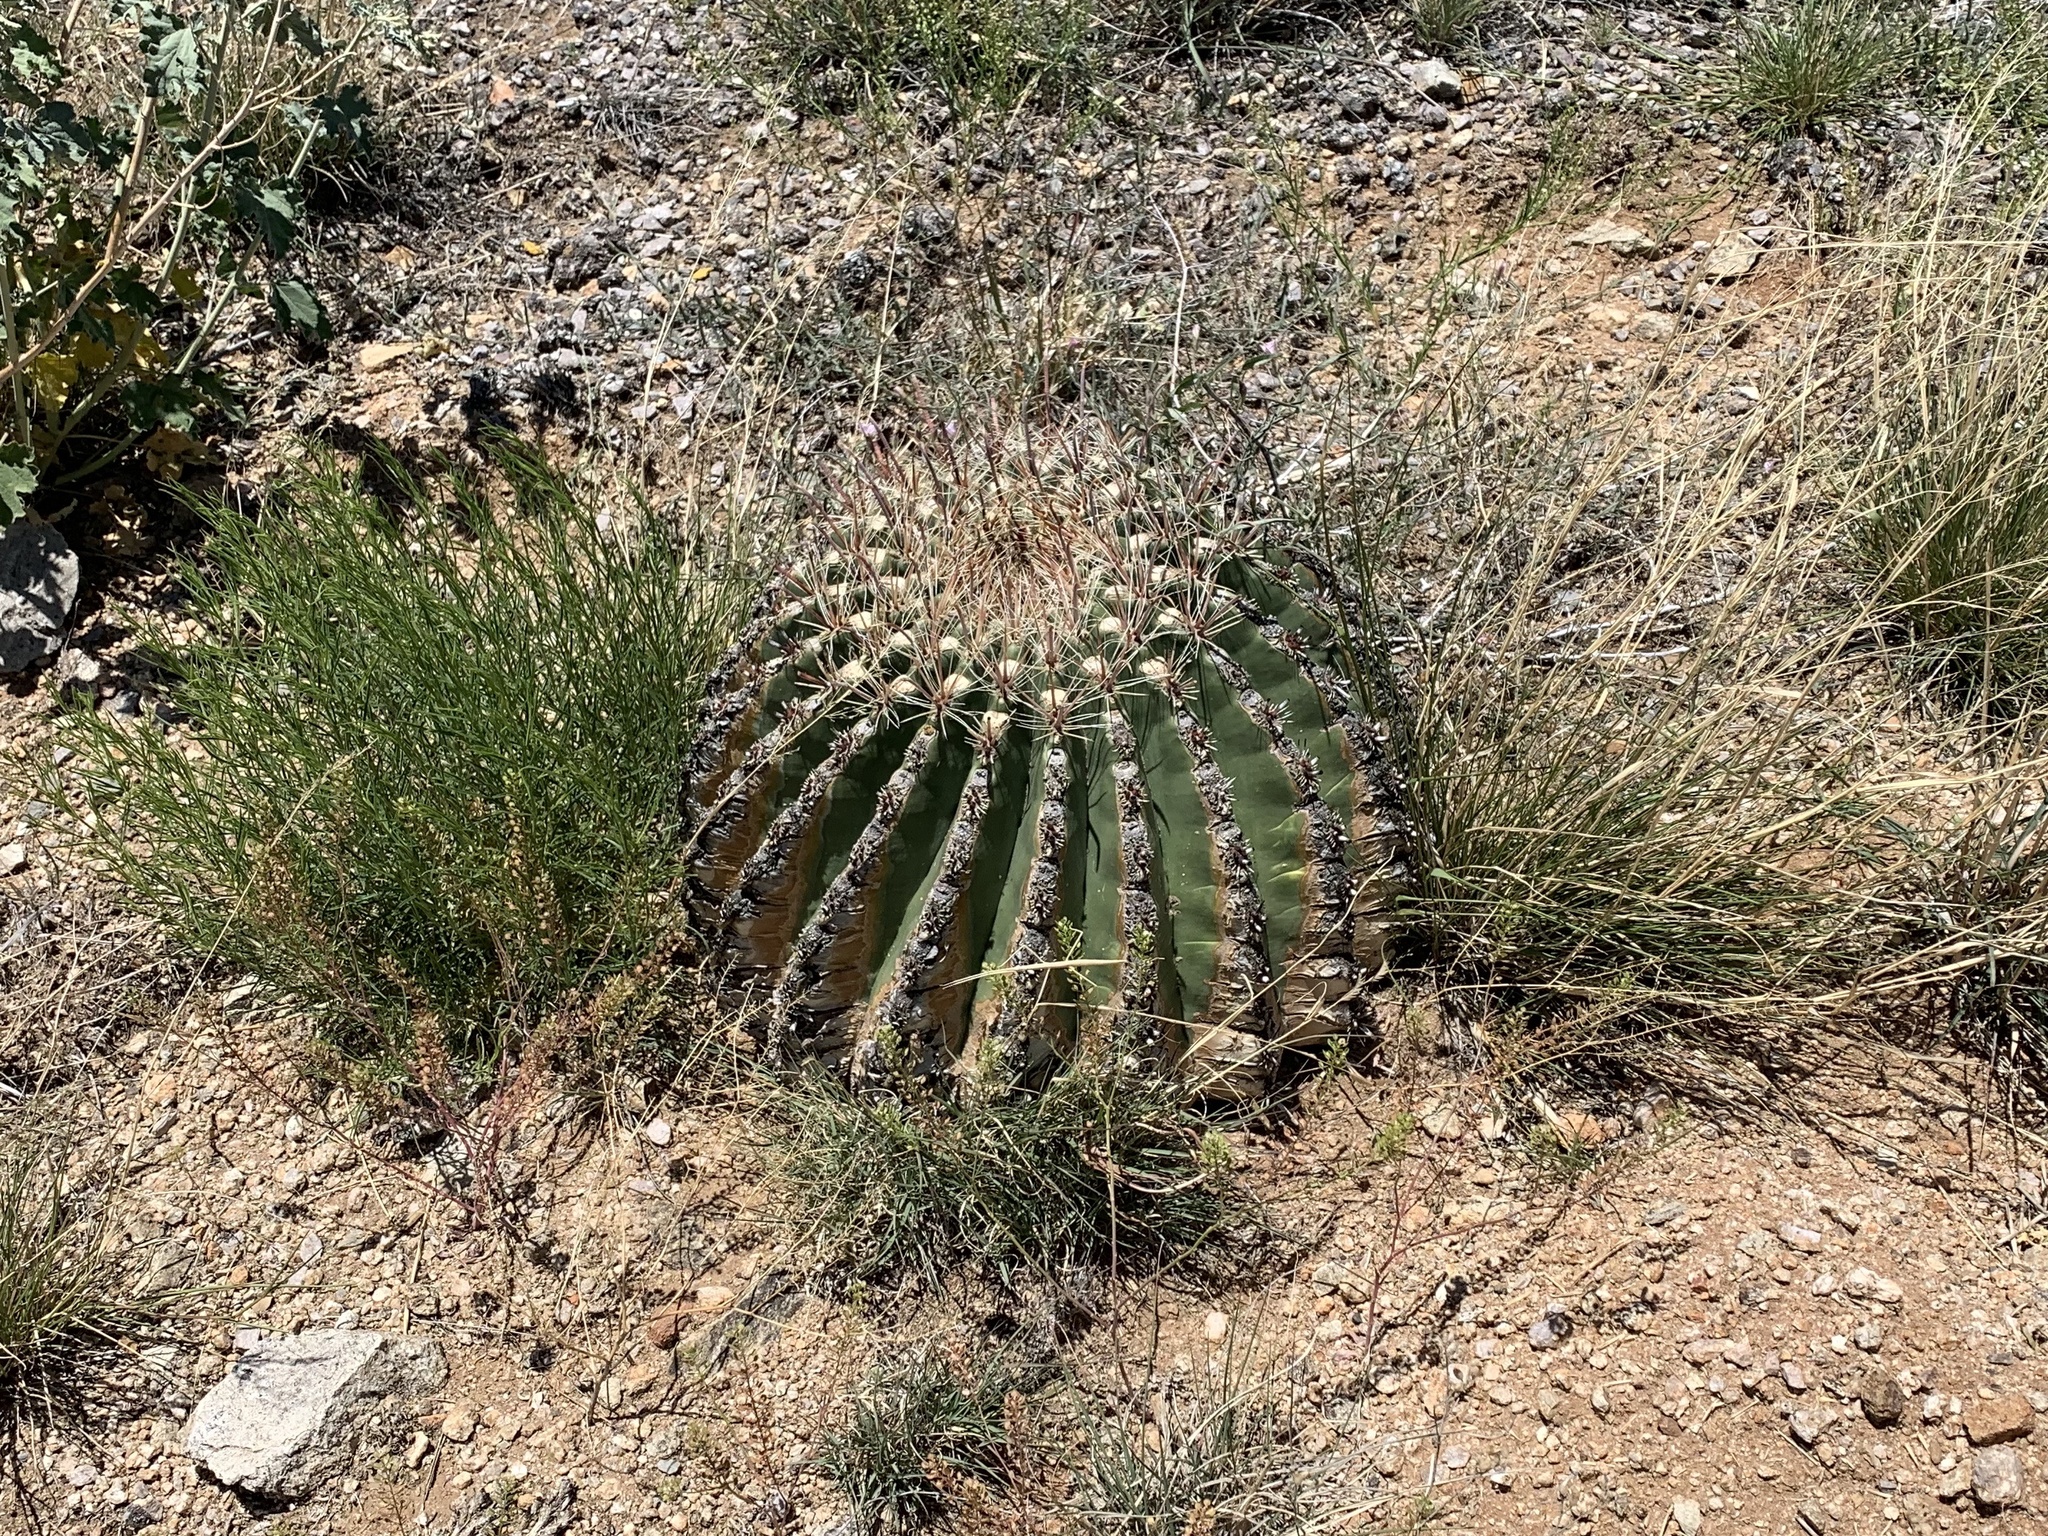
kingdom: Plantae
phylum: Tracheophyta
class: Magnoliopsida
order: Caryophyllales
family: Cactaceae
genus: Ferocactus
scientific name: Ferocactus wislizeni
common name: Candy barrel cactus
